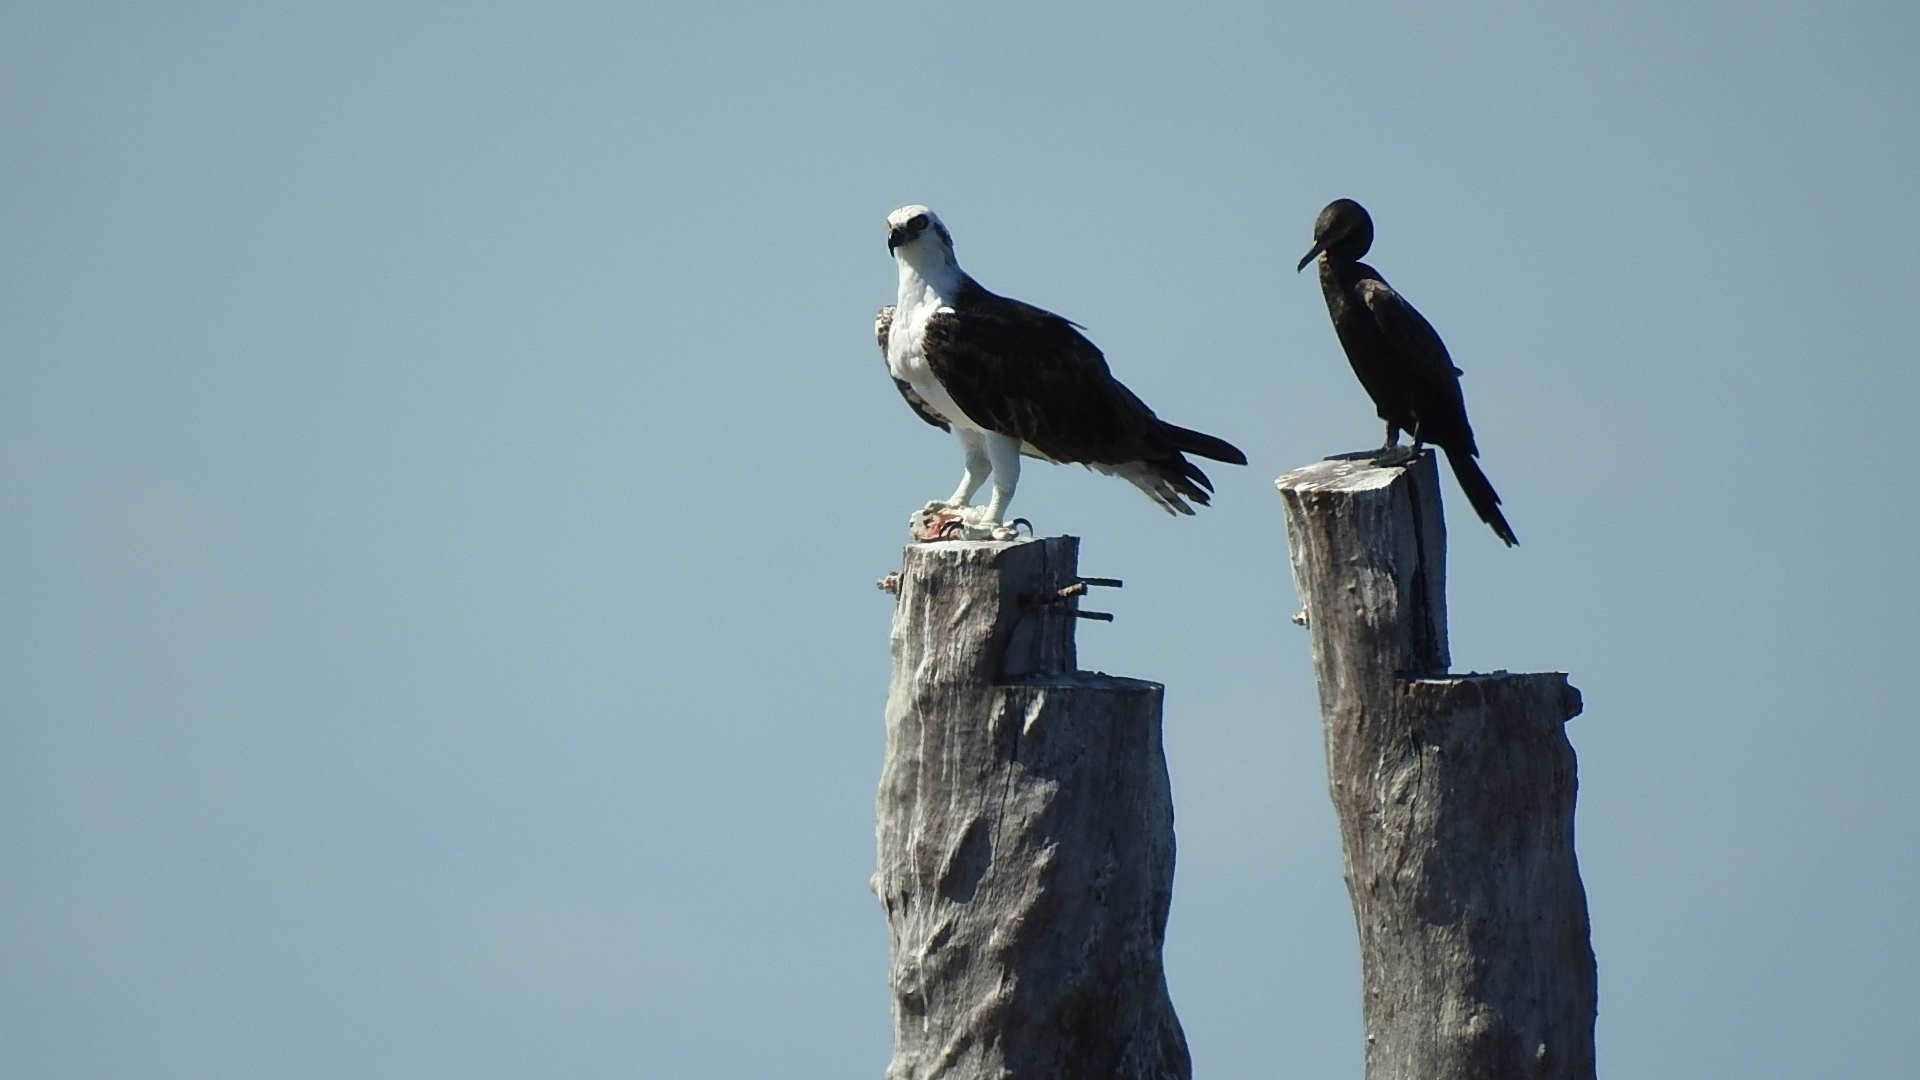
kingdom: Animalia
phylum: Chordata
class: Aves
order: Accipitriformes
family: Pandionidae
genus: Pandion
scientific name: Pandion haliaetus
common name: Osprey
